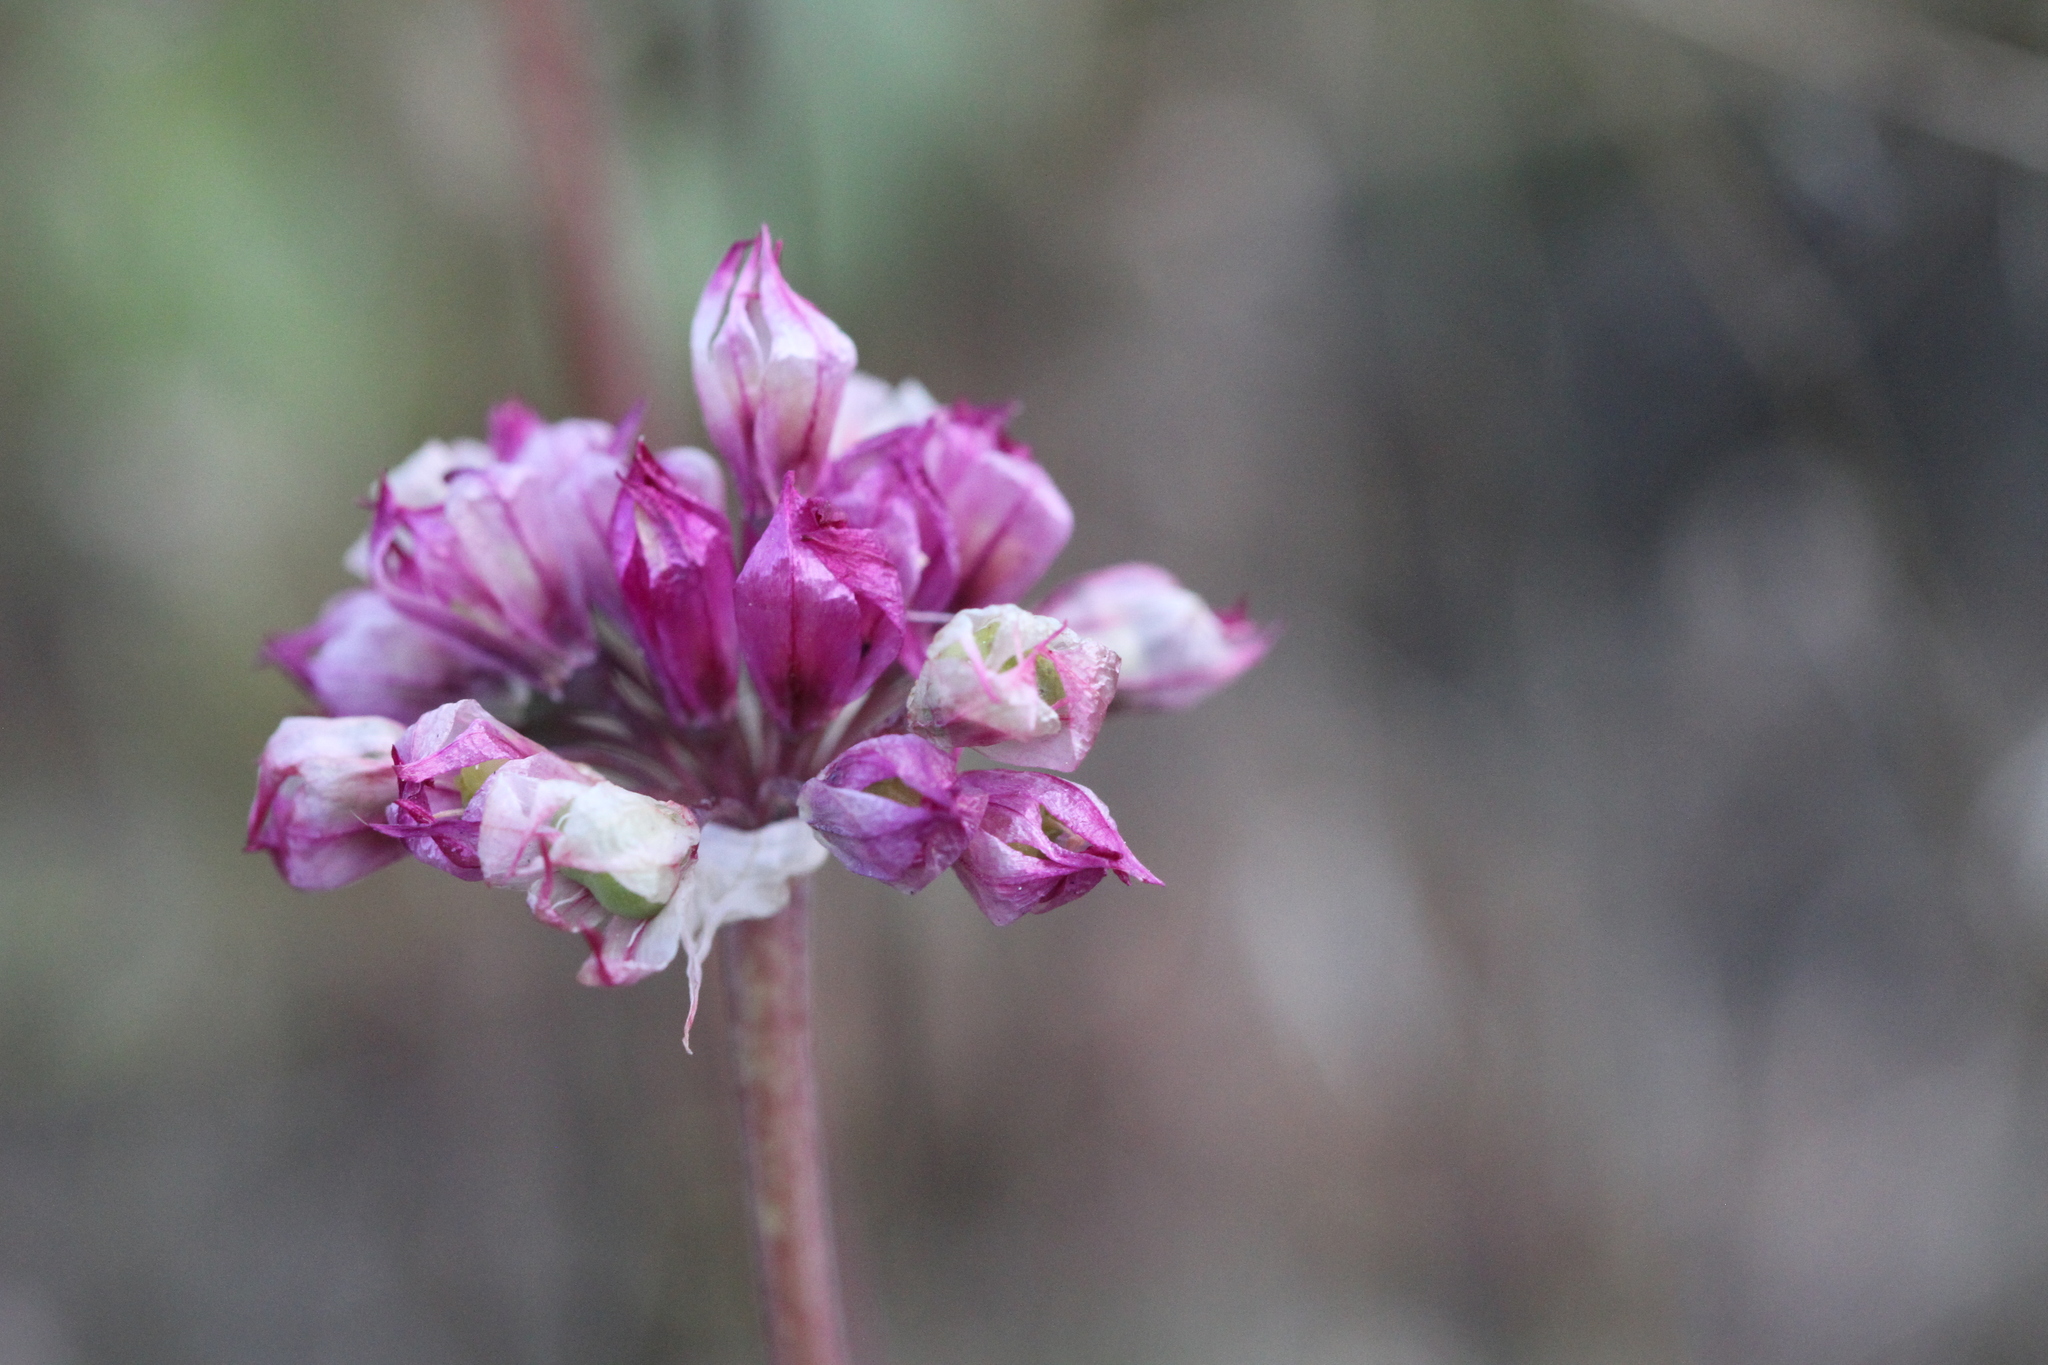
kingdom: Plantae
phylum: Tracheophyta
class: Liliopsida
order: Asparagales
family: Amaryllidaceae
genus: Allium
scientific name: Allium serra
